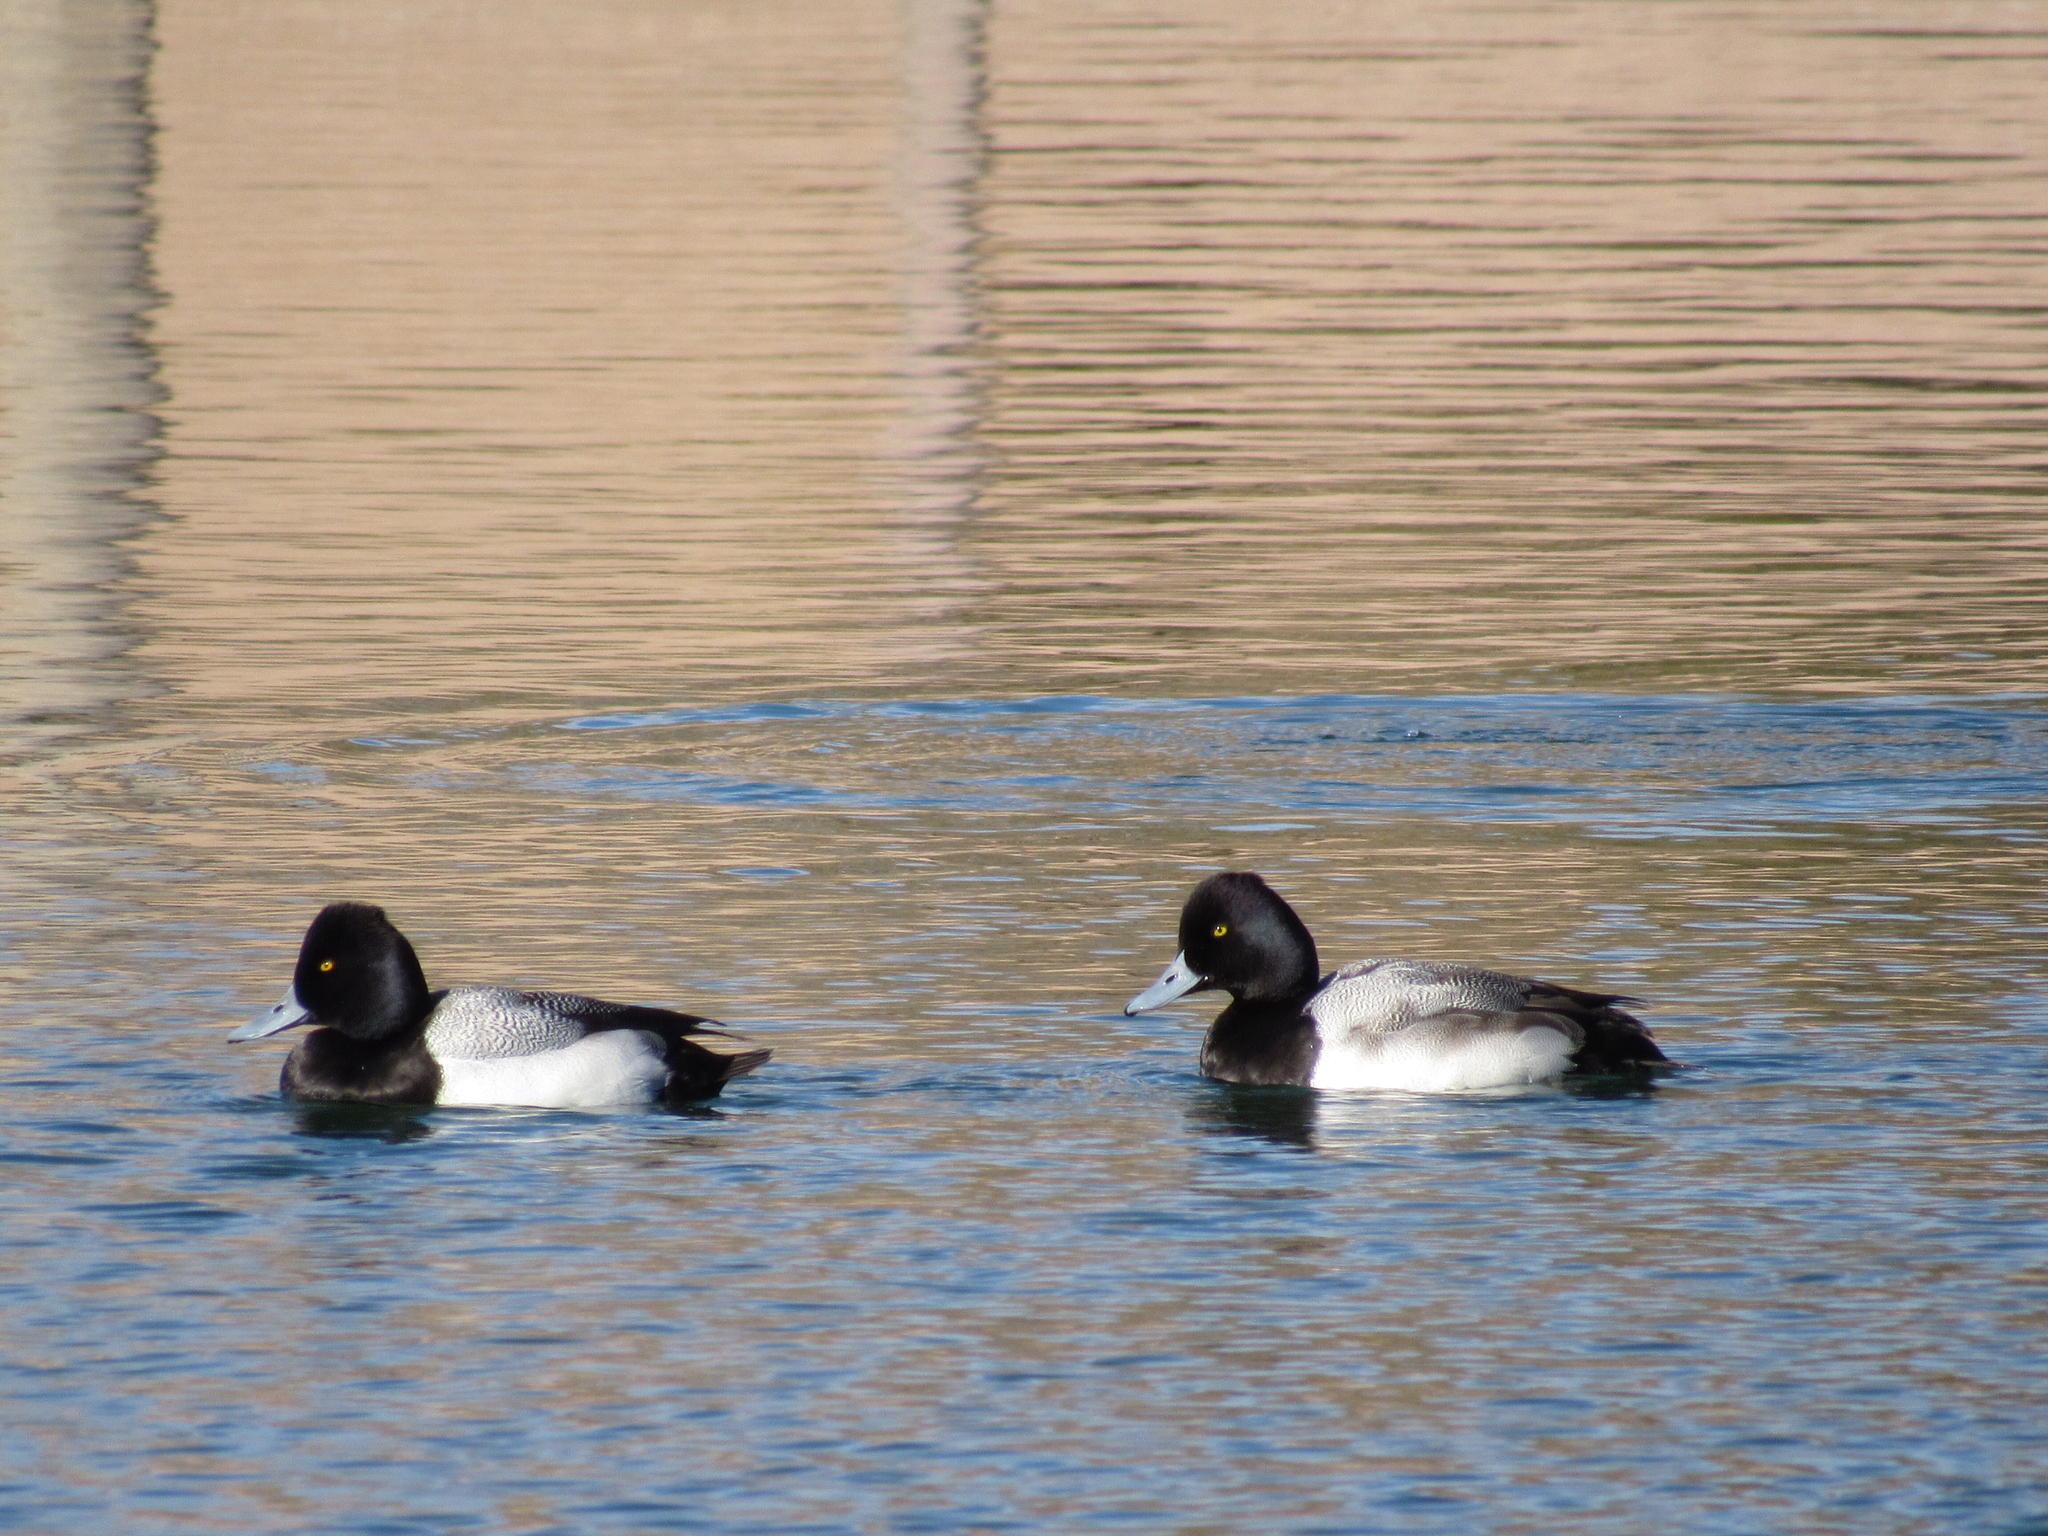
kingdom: Animalia
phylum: Chordata
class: Aves
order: Anseriformes
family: Anatidae
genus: Aythya
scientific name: Aythya affinis
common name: Lesser scaup
